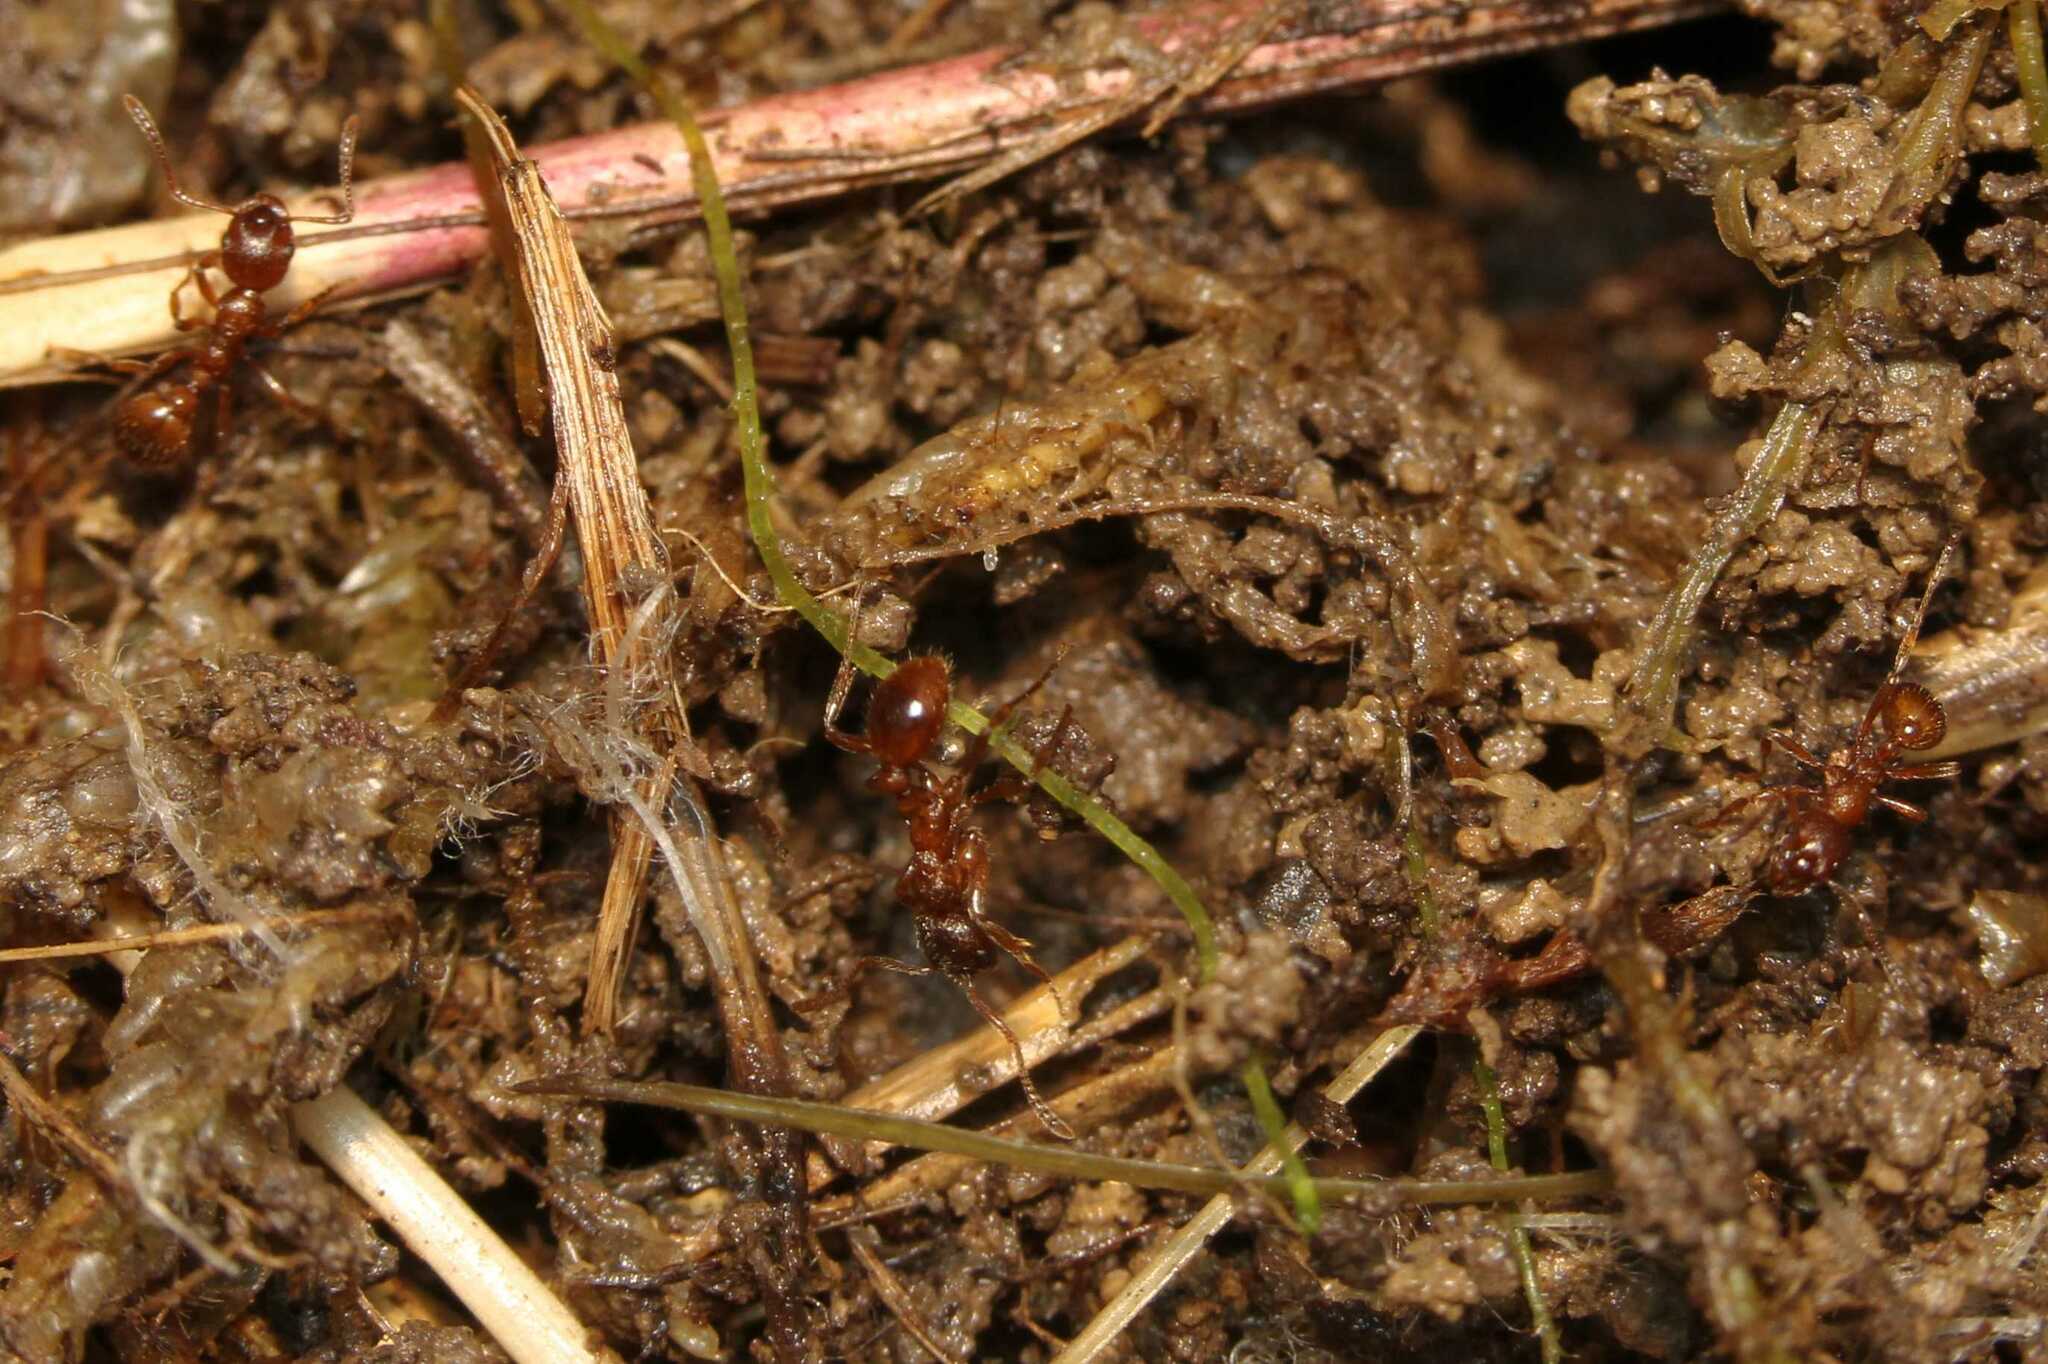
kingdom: Animalia
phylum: Arthropoda
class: Insecta
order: Hymenoptera
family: Formicidae
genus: Myrmica
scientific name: Myrmica rubra
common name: European fire ant
